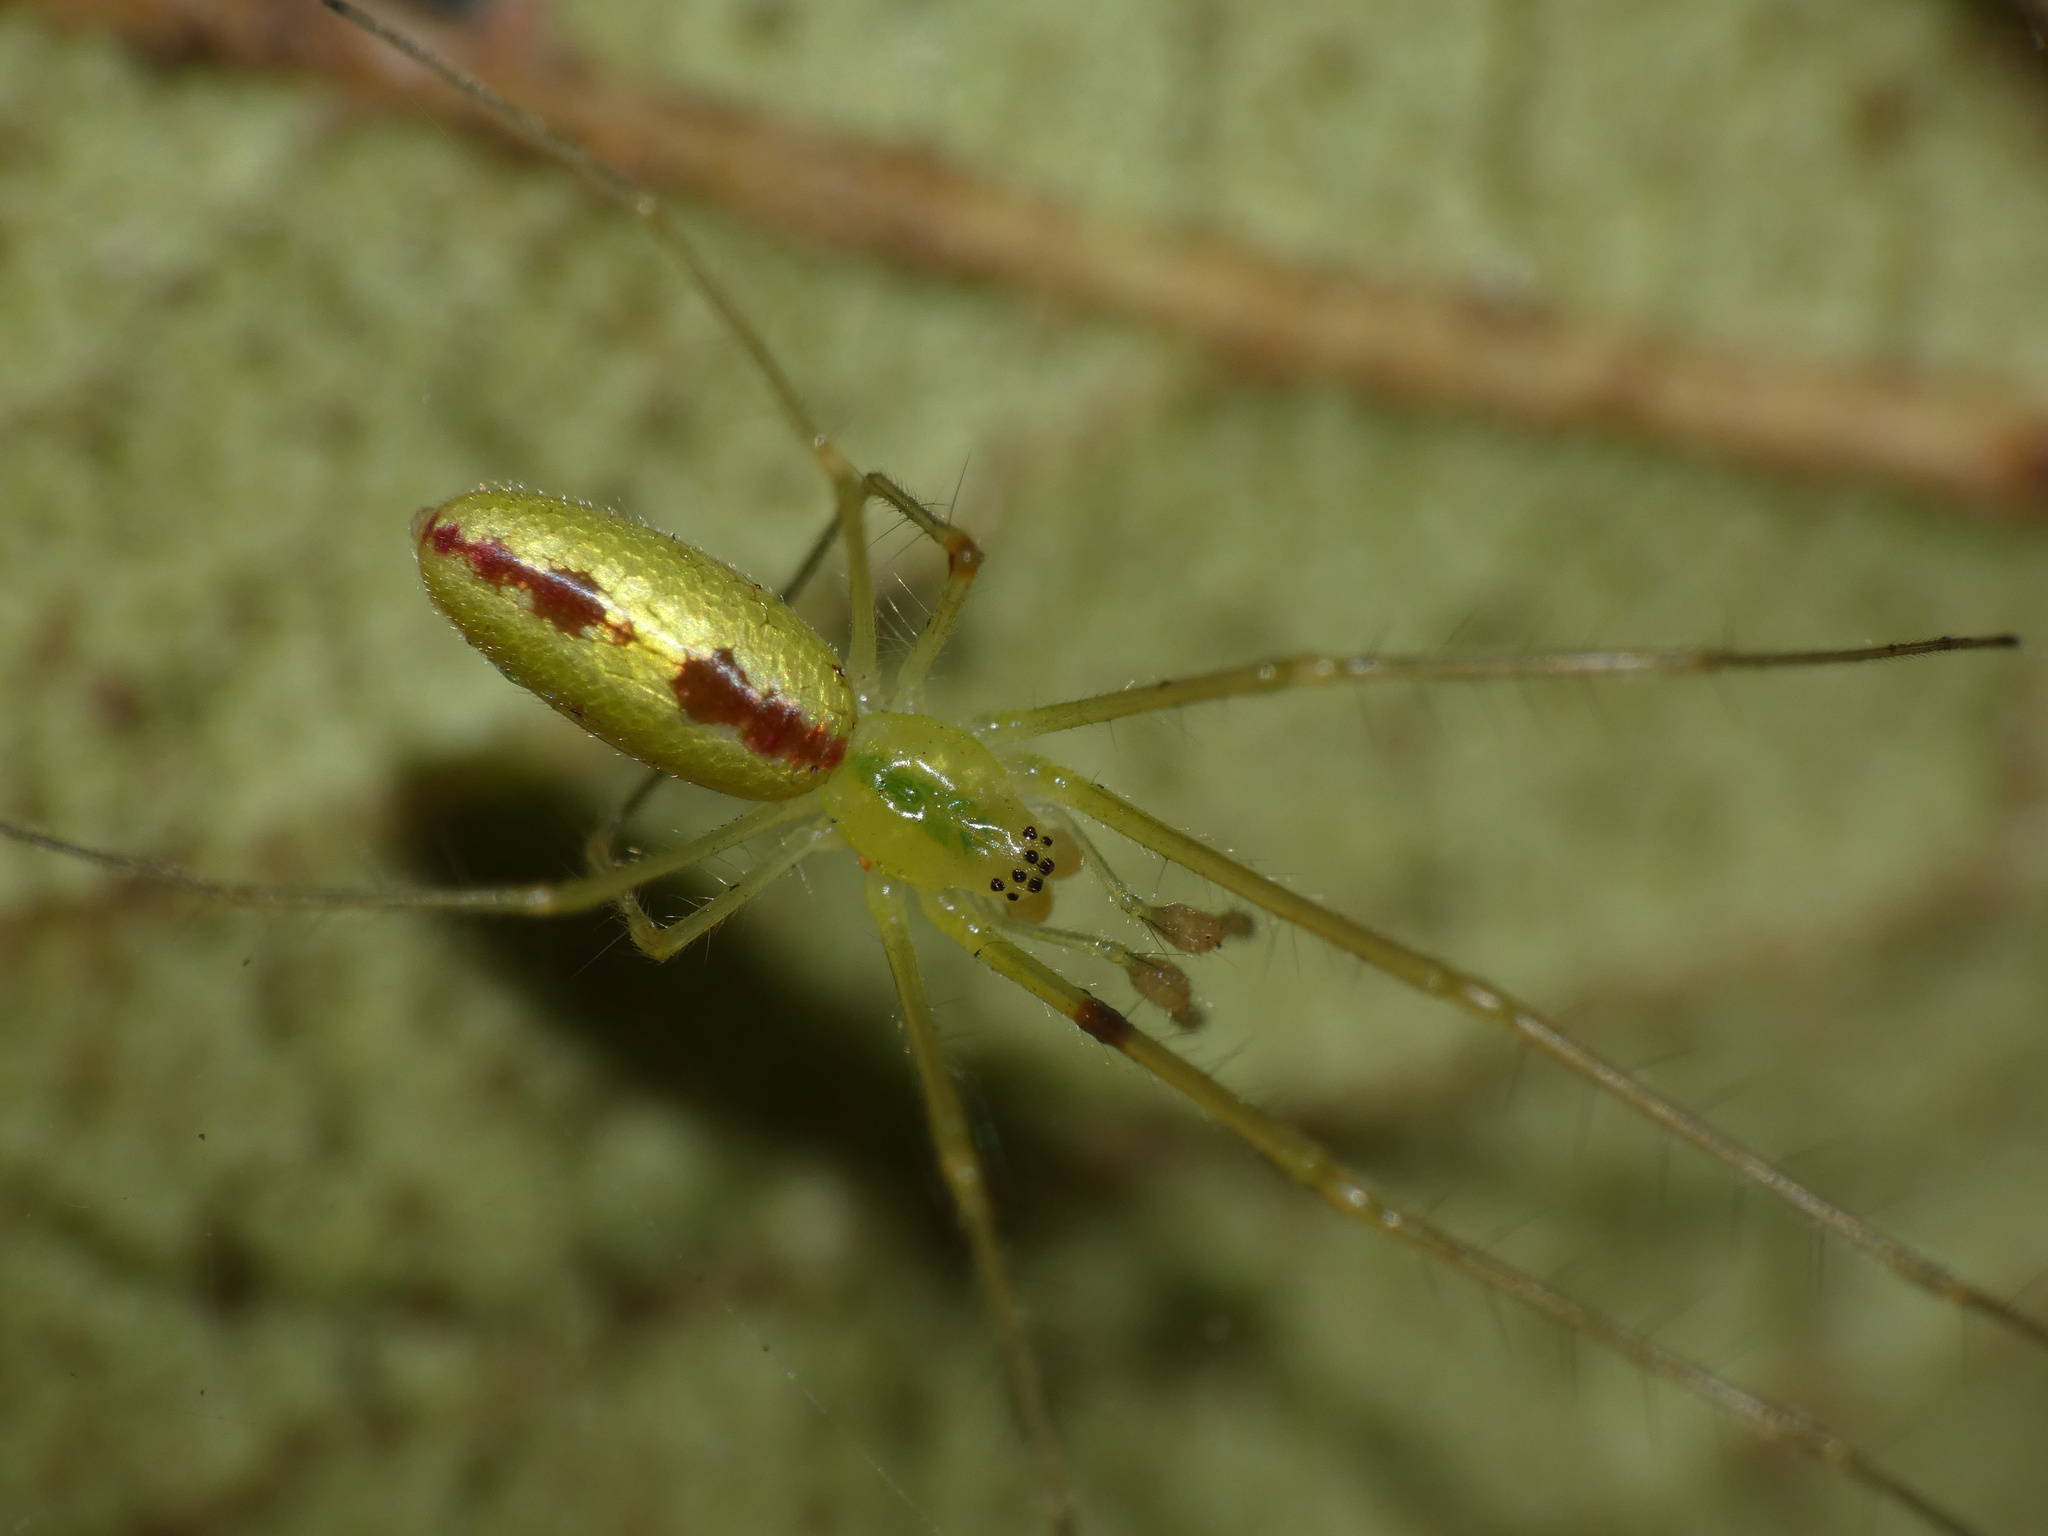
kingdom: Animalia
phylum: Arthropoda
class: Arachnida
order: Araneae
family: Tetragnathidae
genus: Tetragnatha
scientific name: Tetragnatha subsquamata
